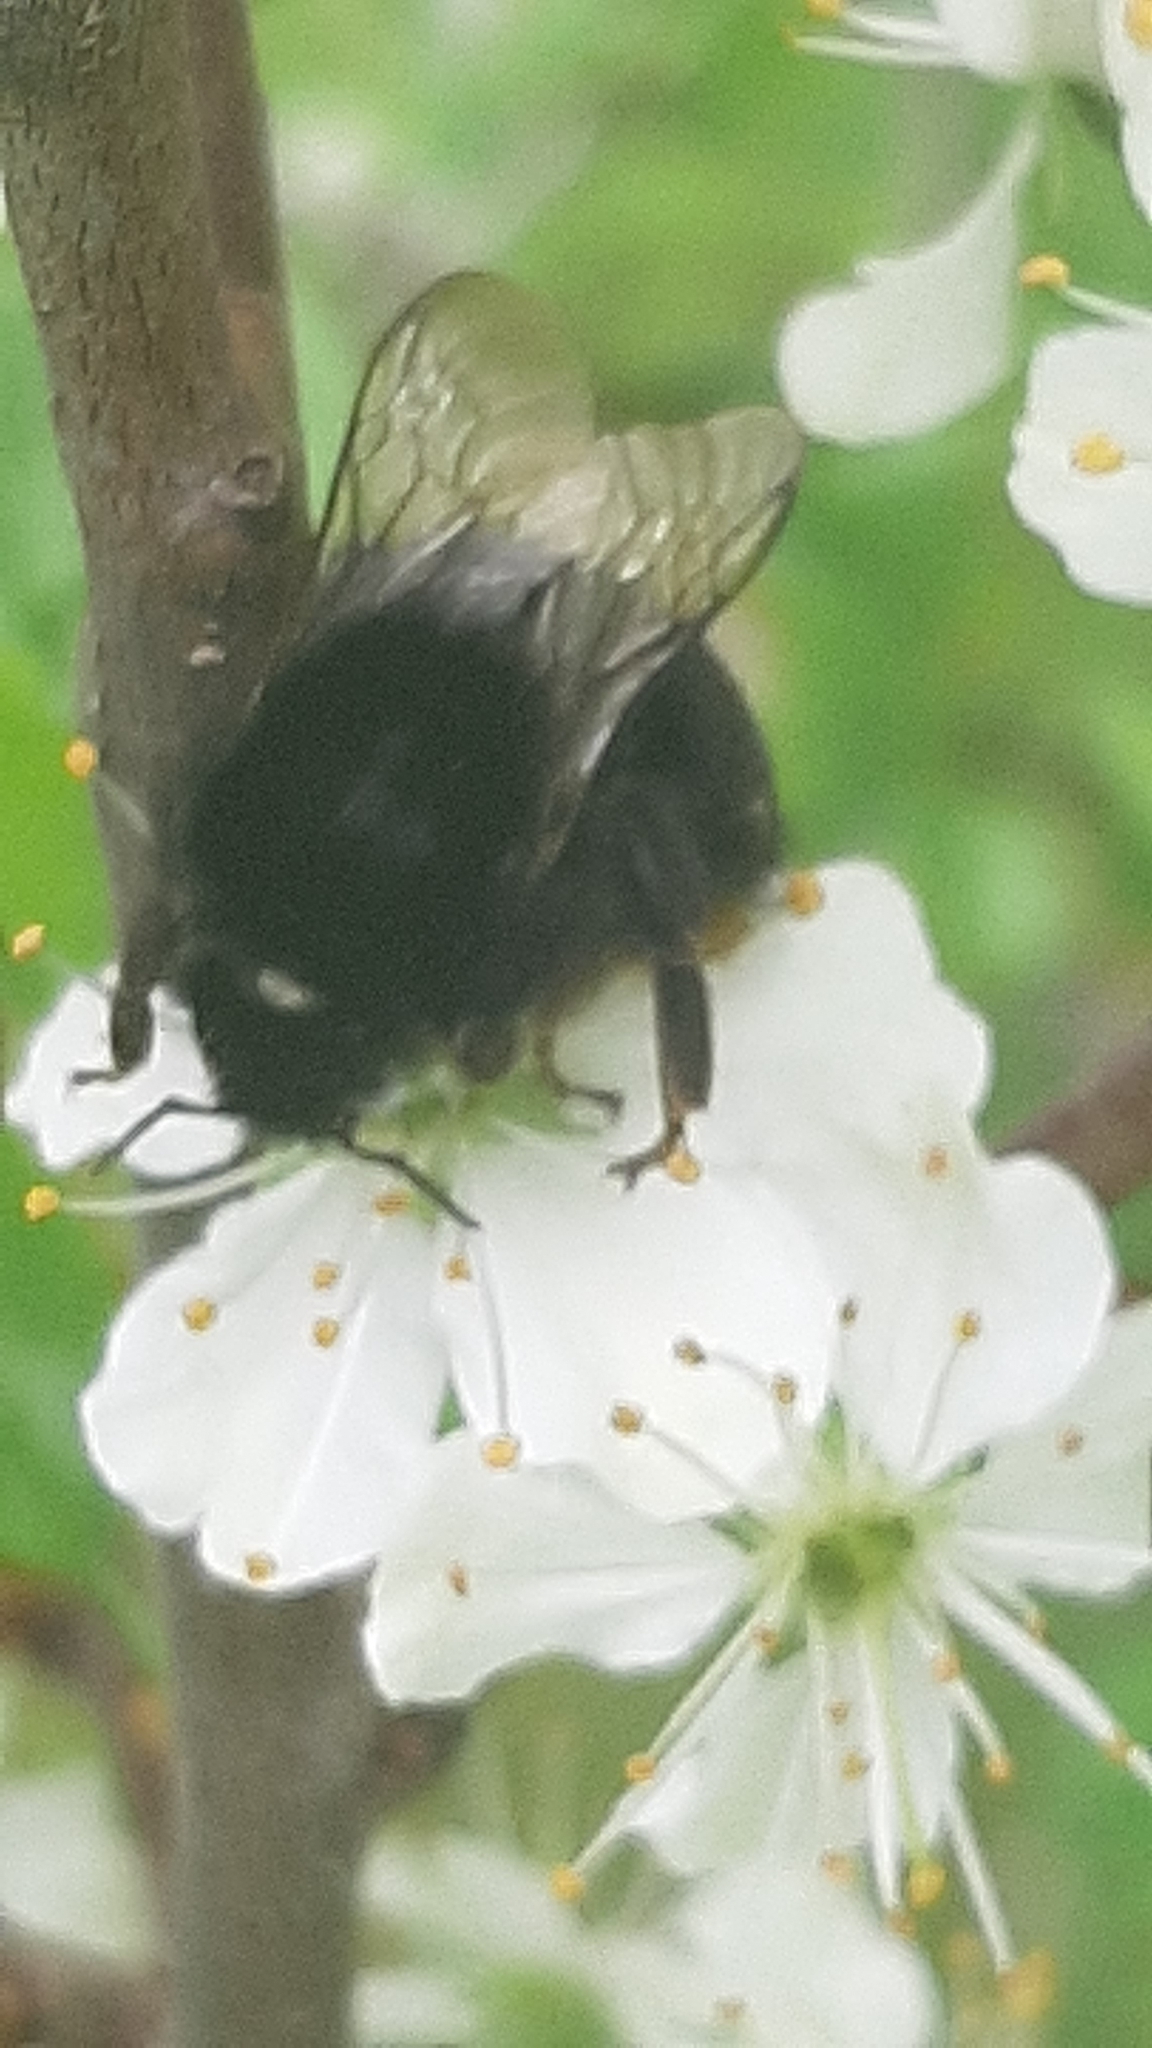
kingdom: Animalia
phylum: Arthropoda
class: Insecta
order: Hymenoptera
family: Apidae
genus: Bombus
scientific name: Bombus lapidarius
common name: Large red-tailed humble-bee
